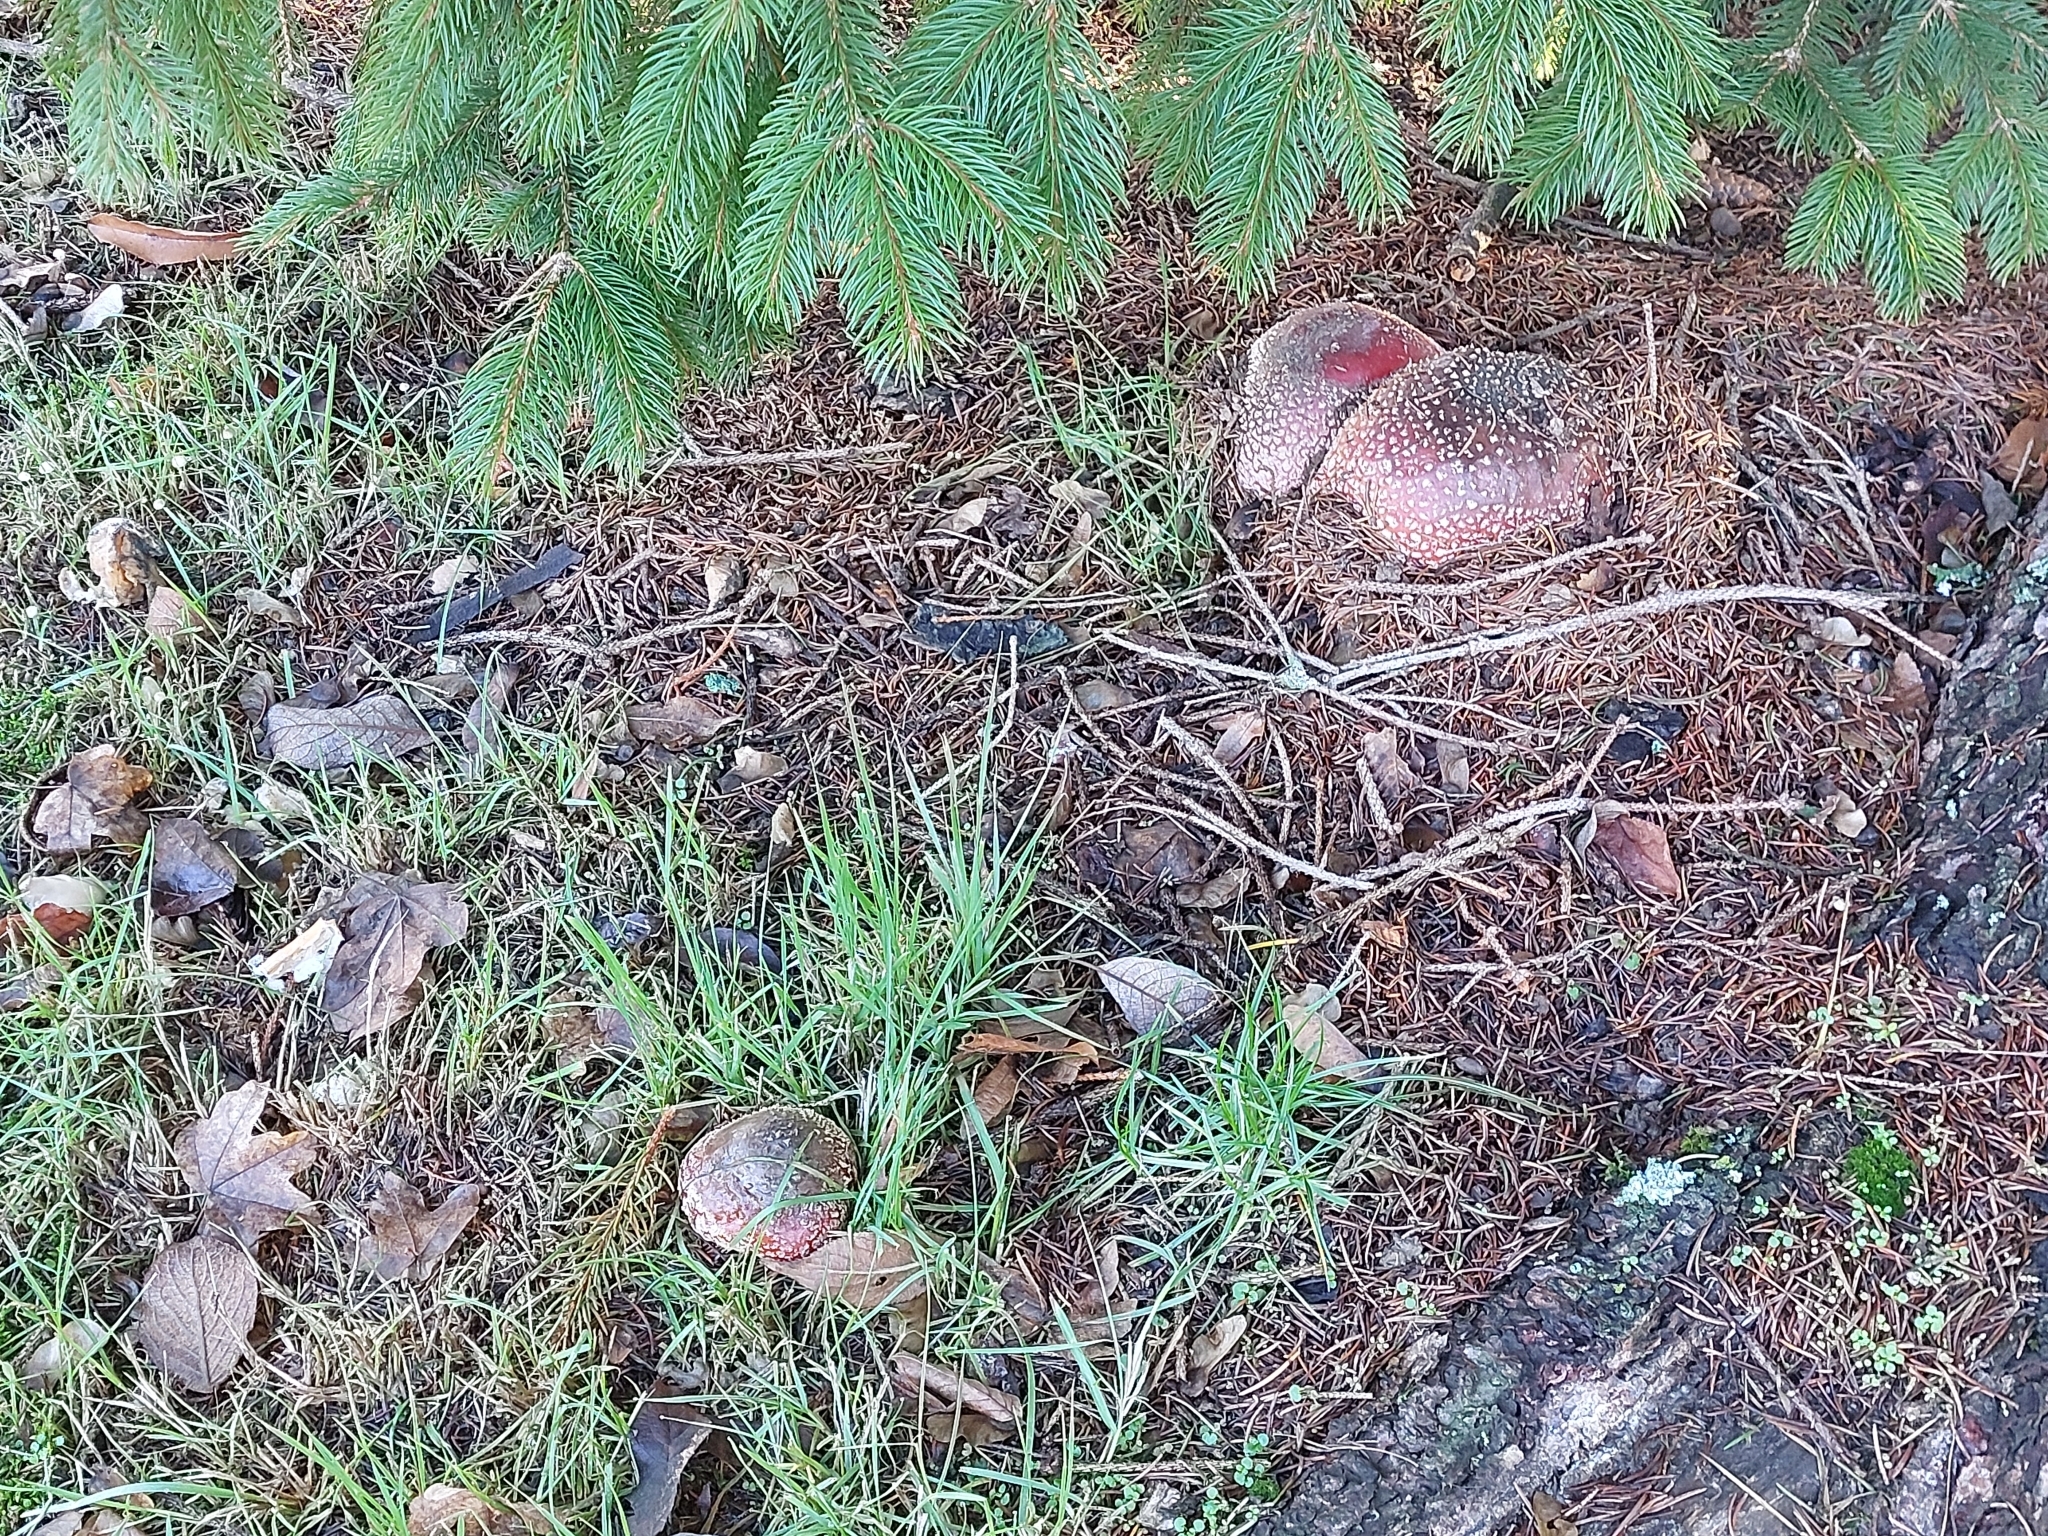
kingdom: Fungi
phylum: Basidiomycota
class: Agaricomycetes
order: Agaricales
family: Amanitaceae
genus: Amanita
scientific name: Amanita muscaria
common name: Fly agaric
